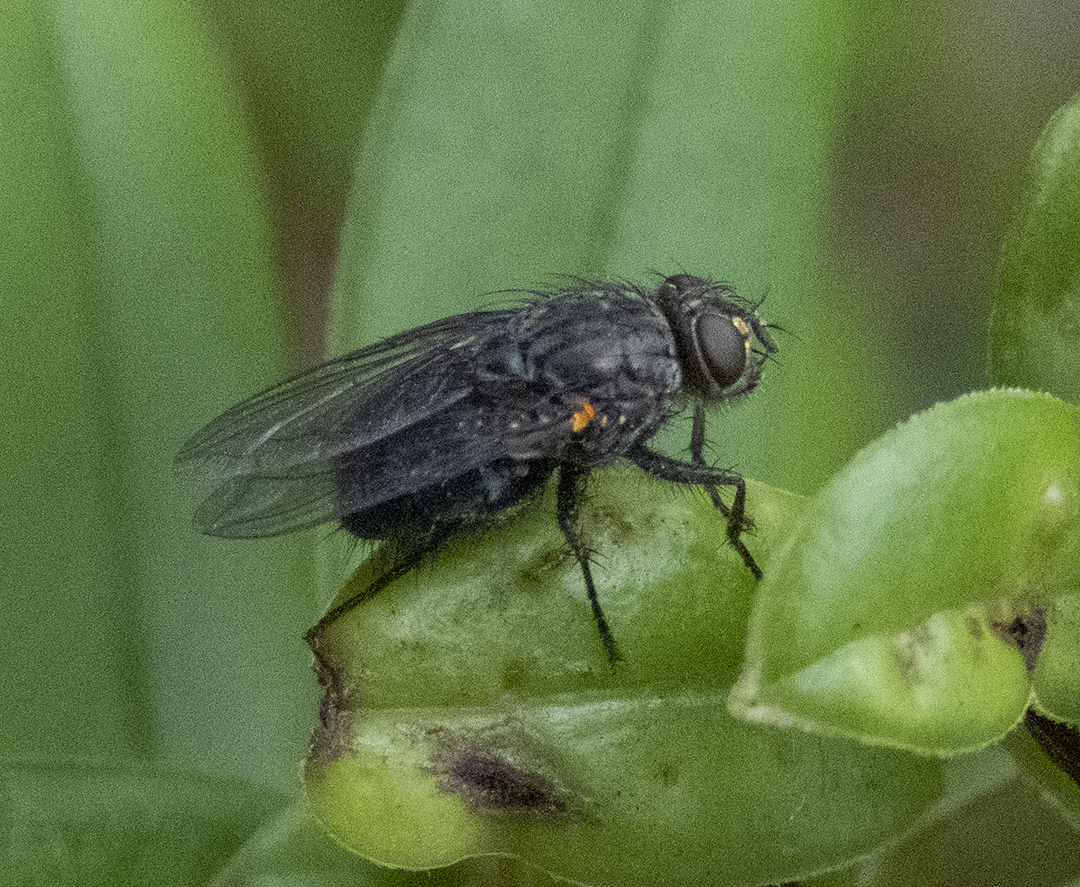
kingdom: Animalia
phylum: Arthropoda
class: Insecta
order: Diptera
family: Calliphoridae
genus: Calliphora
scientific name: Calliphora vicina
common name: Common blow flie
